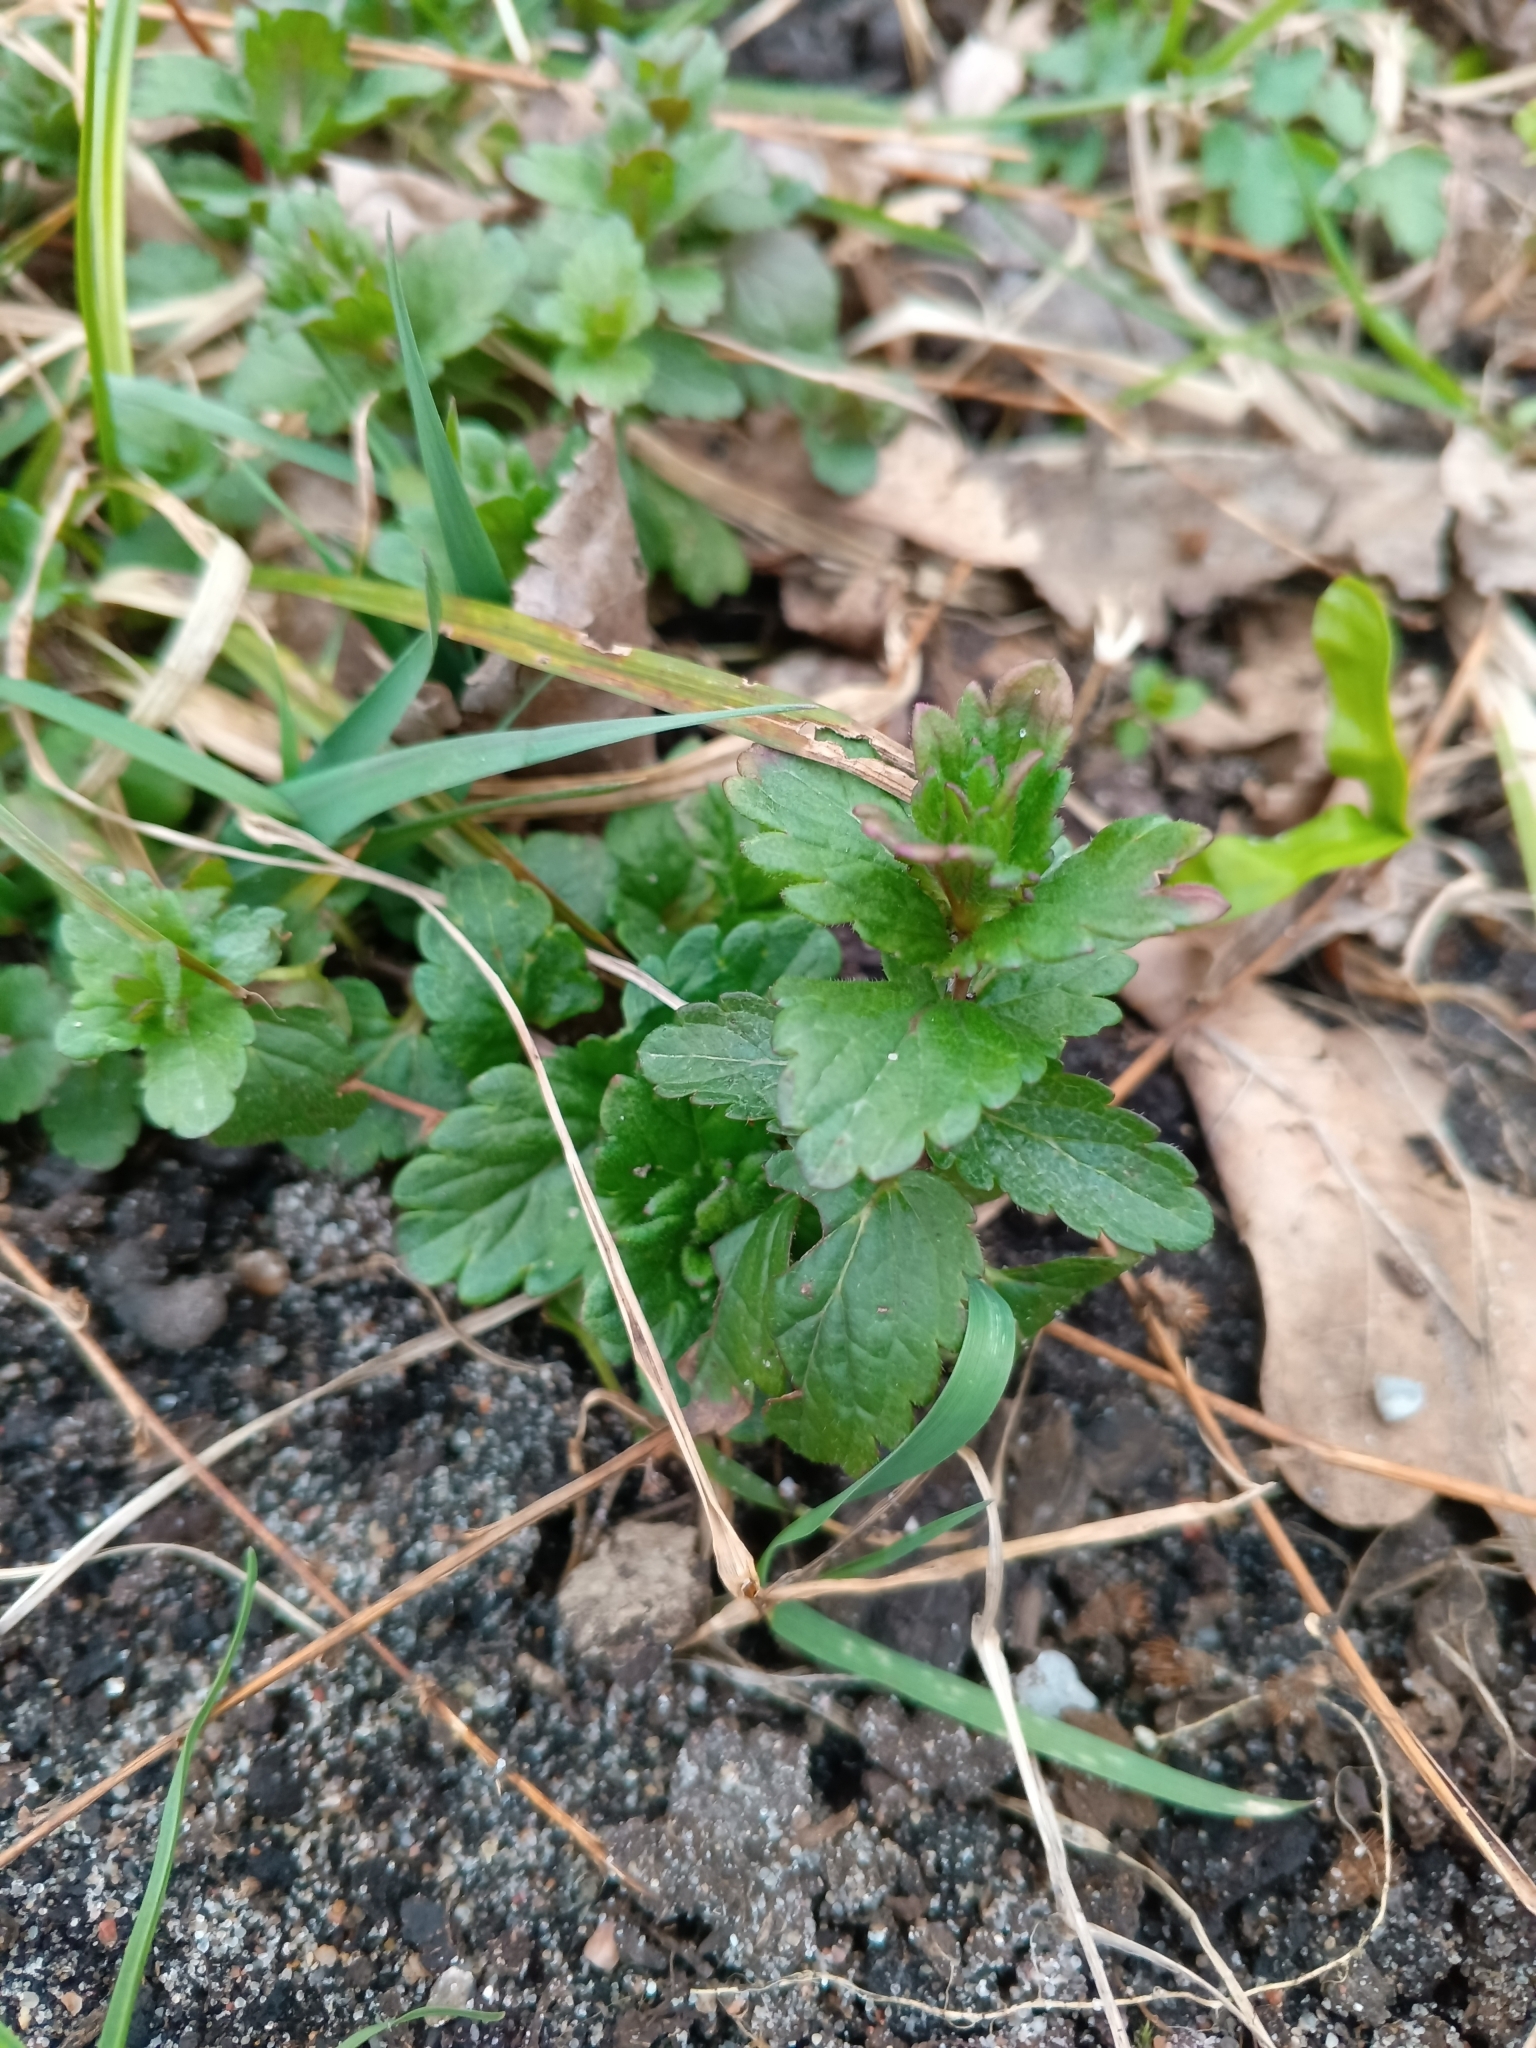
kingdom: Plantae
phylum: Tracheophyta
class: Magnoliopsida
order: Lamiales
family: Lamiaceae
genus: Glechoma
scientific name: Glechoma hederacea
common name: Ground ivy
